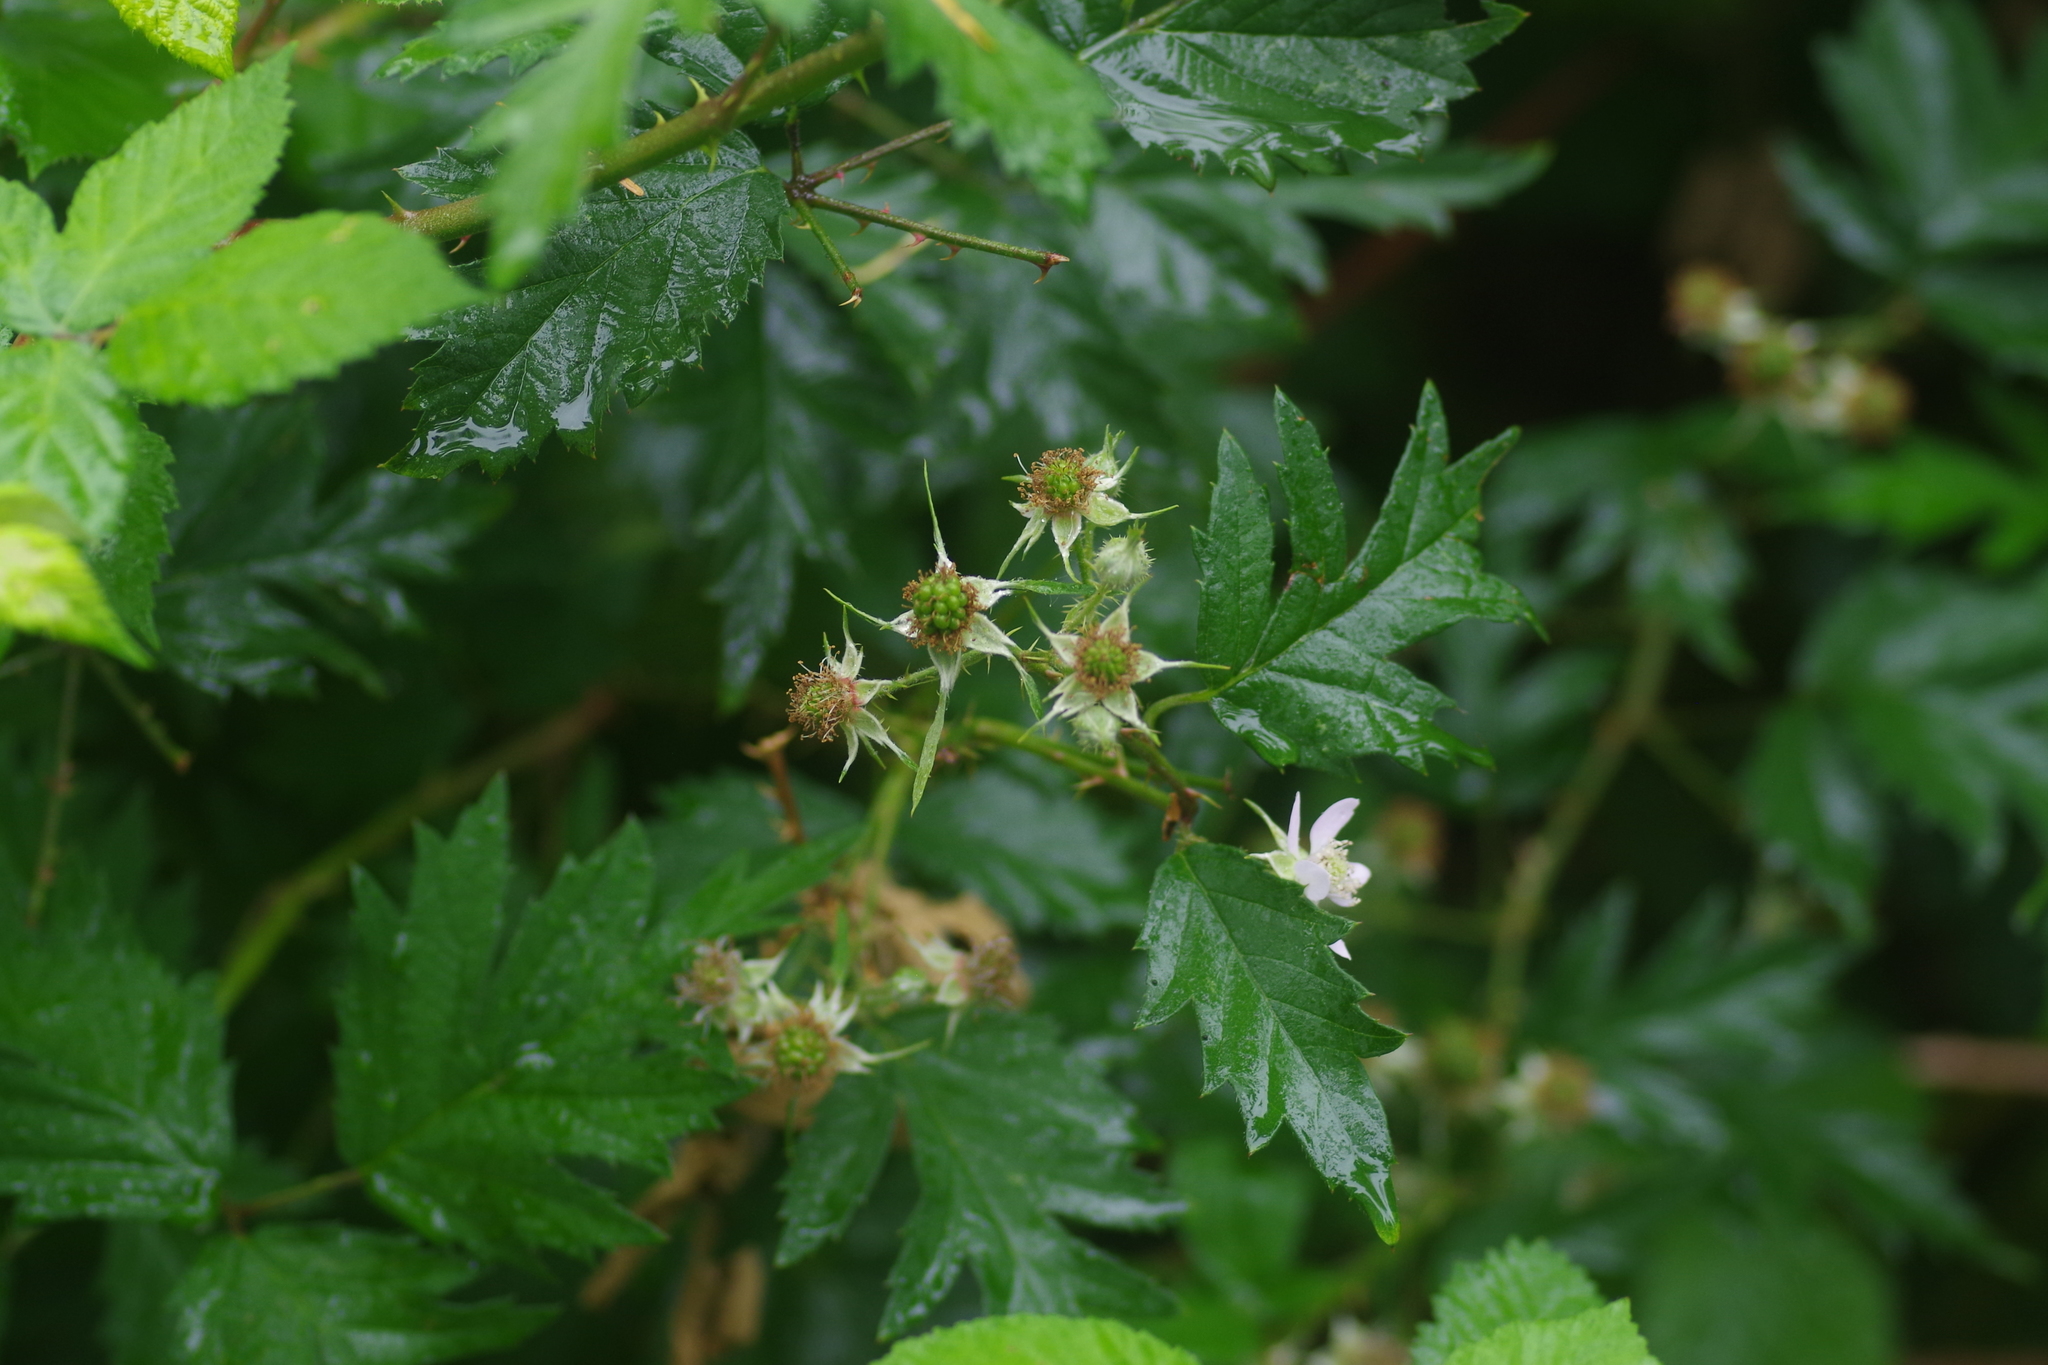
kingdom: Plantae
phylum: Tracheophyta
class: Magnoliopsida
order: Rosales
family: Rosaceae
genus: Rubus
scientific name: Rubus laciniatus
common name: Evergreen blackberry
